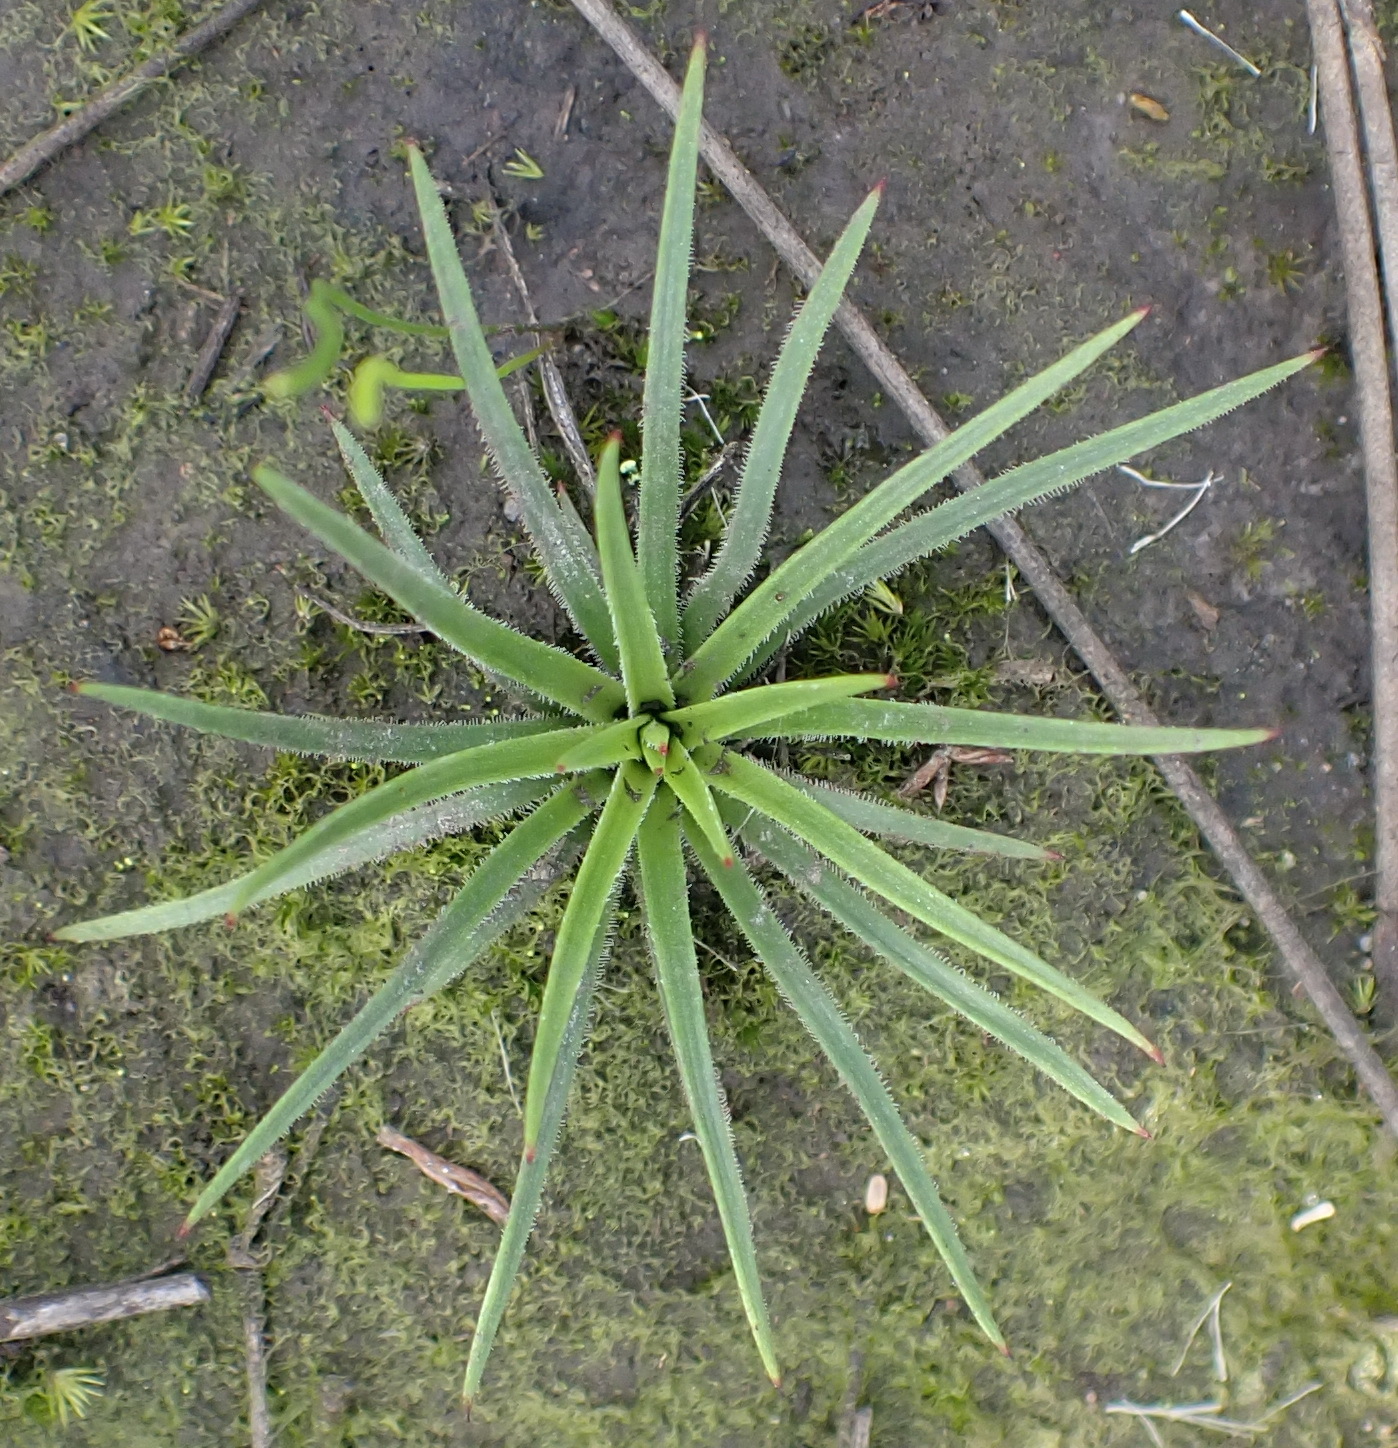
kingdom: Plantae
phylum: Tracheophyta
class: Liliopsida
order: Asparagales
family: Orchidaceae
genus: Ceratandra
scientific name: Ceratandra grandiflora
